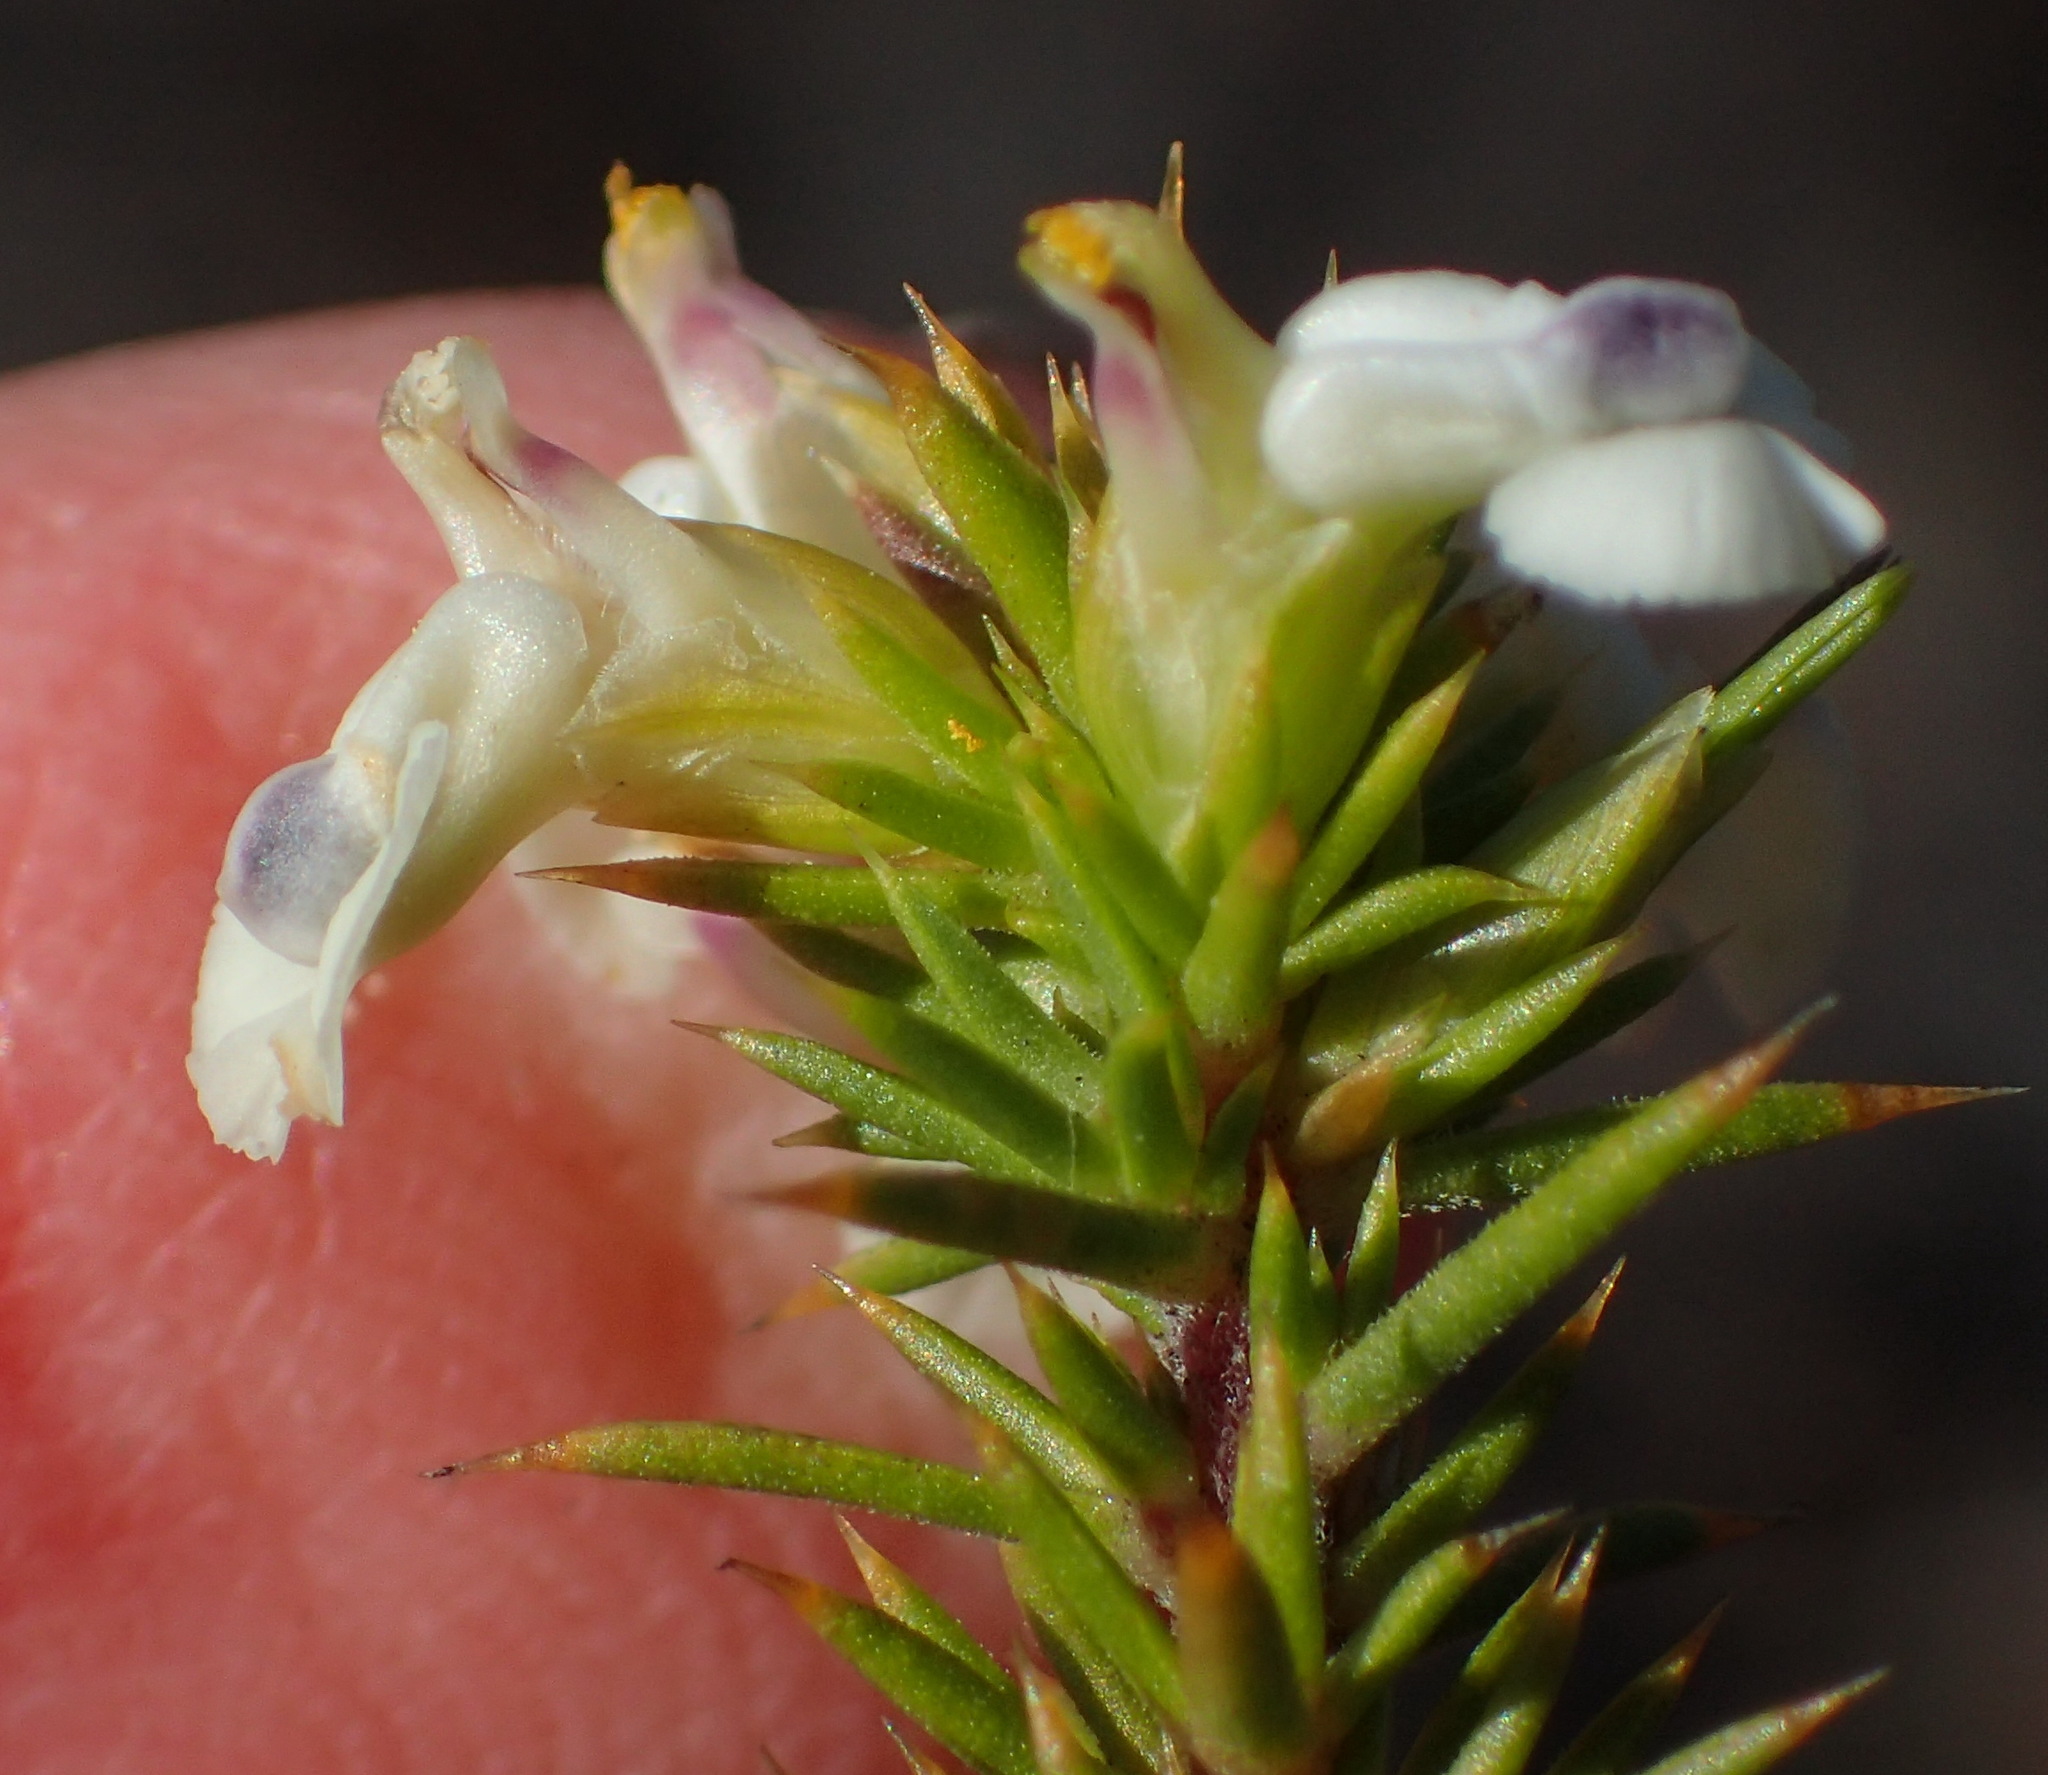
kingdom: Plantae
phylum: Tracheophyta
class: Magnoliopsida
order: Fabales
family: Polygalaceae
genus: Muraltia
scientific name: Muraltia ericifolia
